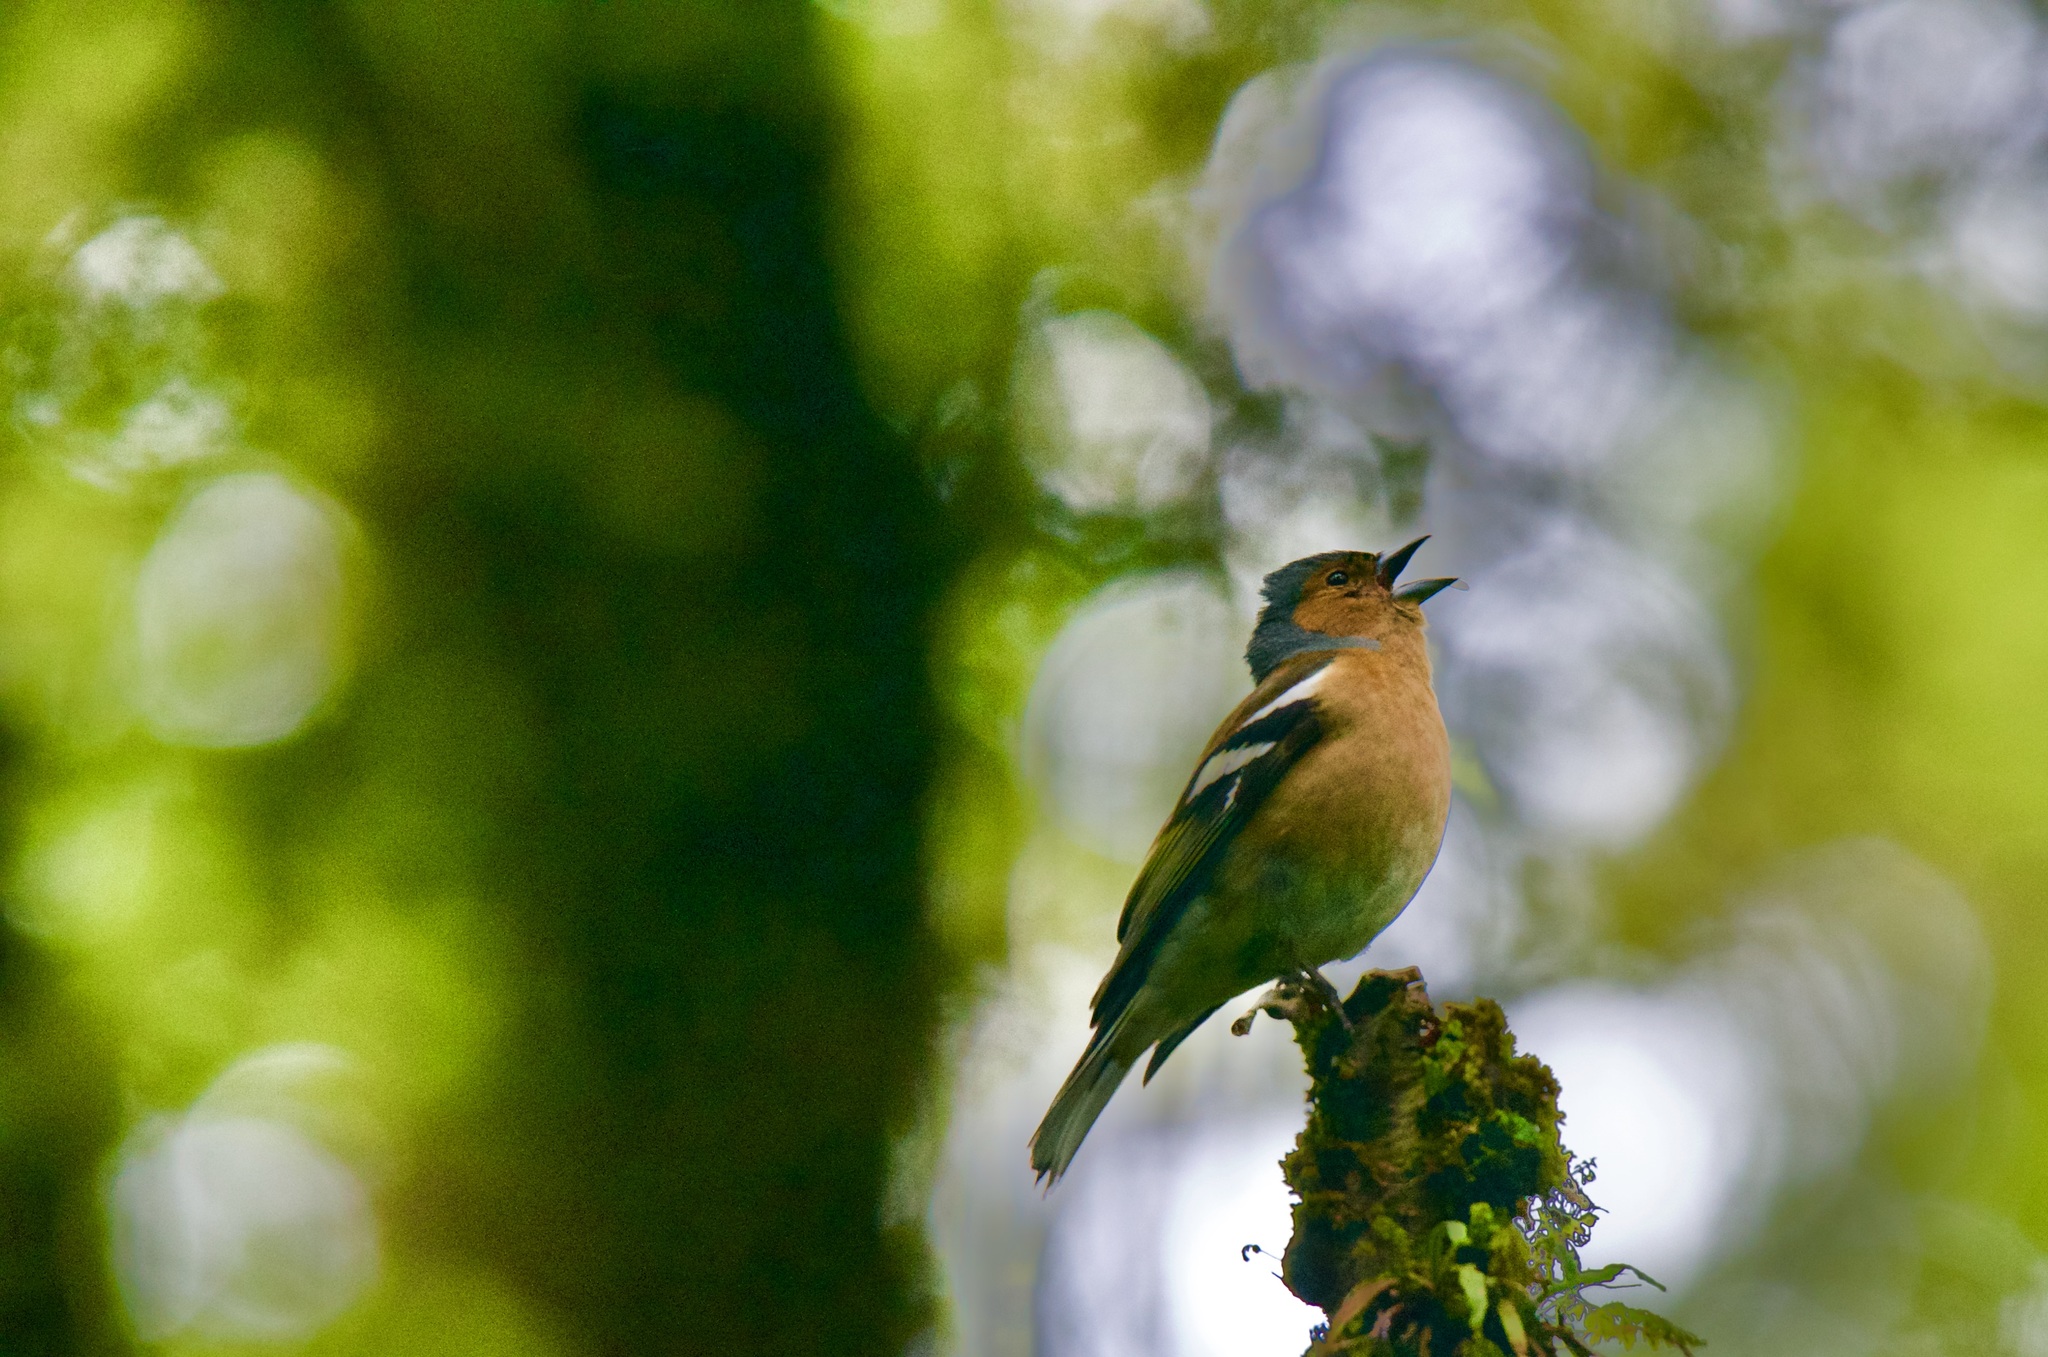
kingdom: Animalia
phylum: Chordata
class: Aves
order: Passeriformes
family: Fringillidae
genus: Fringilla
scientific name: Fringilla coelebs
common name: Common chaffinch
